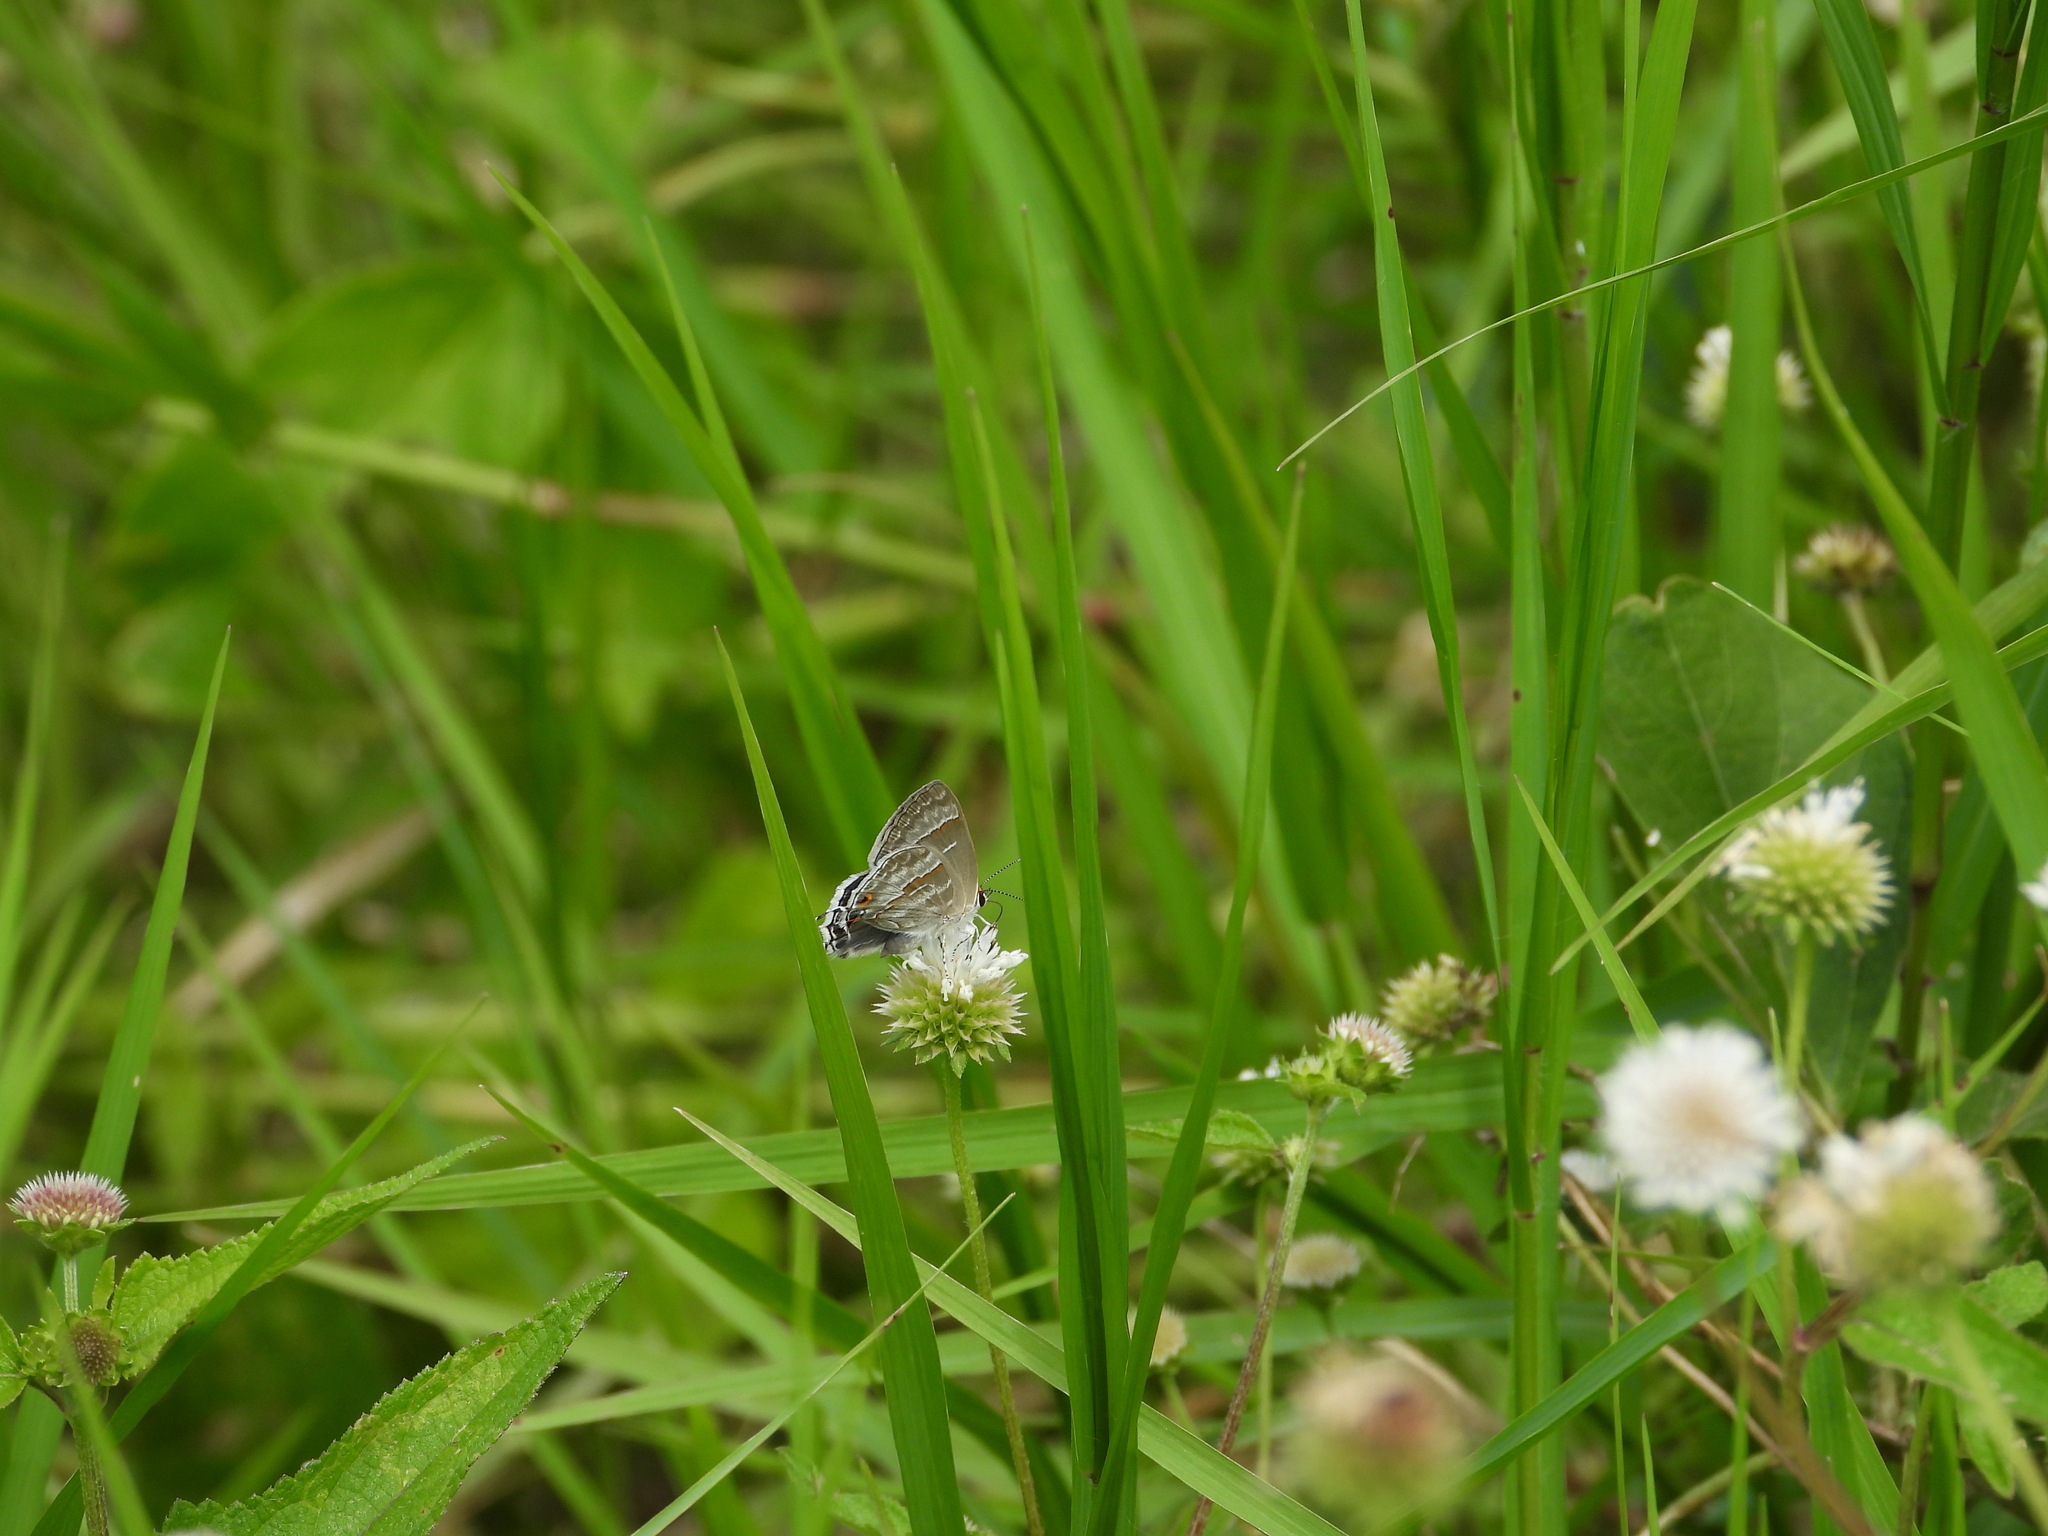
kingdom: Animalia
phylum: Arthropoda
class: Insecta
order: Lepidoptera
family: Lycaenidae
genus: Thecla
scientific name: Thecla yojoa
